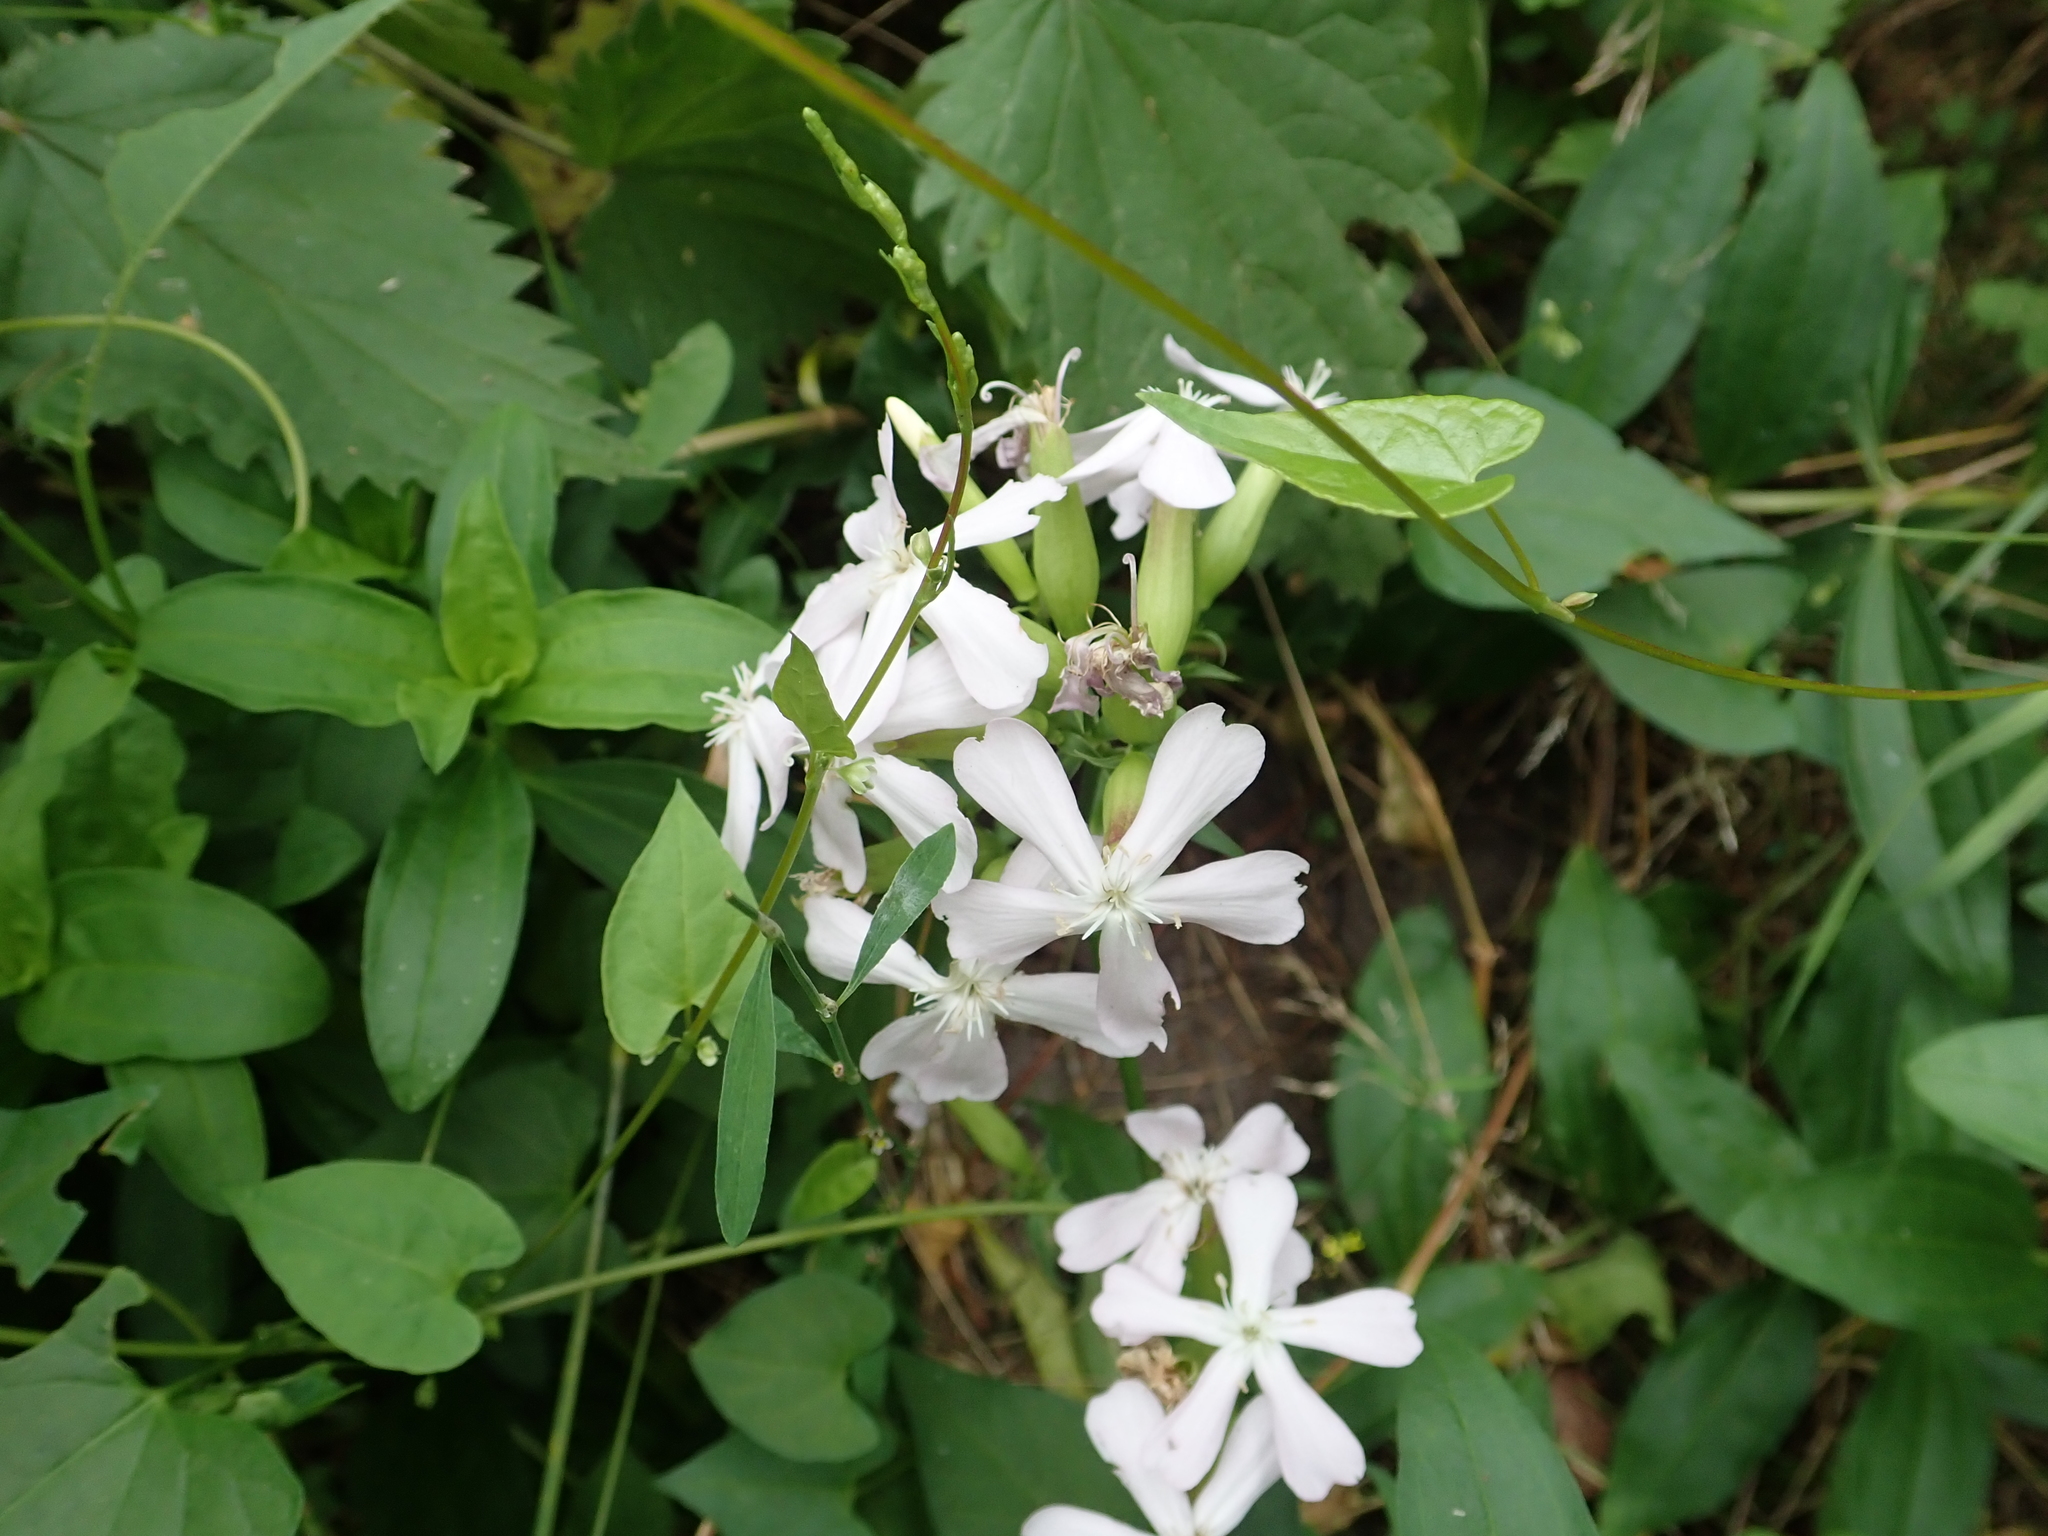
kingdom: Plantae
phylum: Tracheophyta
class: Magnoliopsida
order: Caryophyllales
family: Caryophyllaceae
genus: Saponaria
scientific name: Saponaria officinalis
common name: Soapwort
